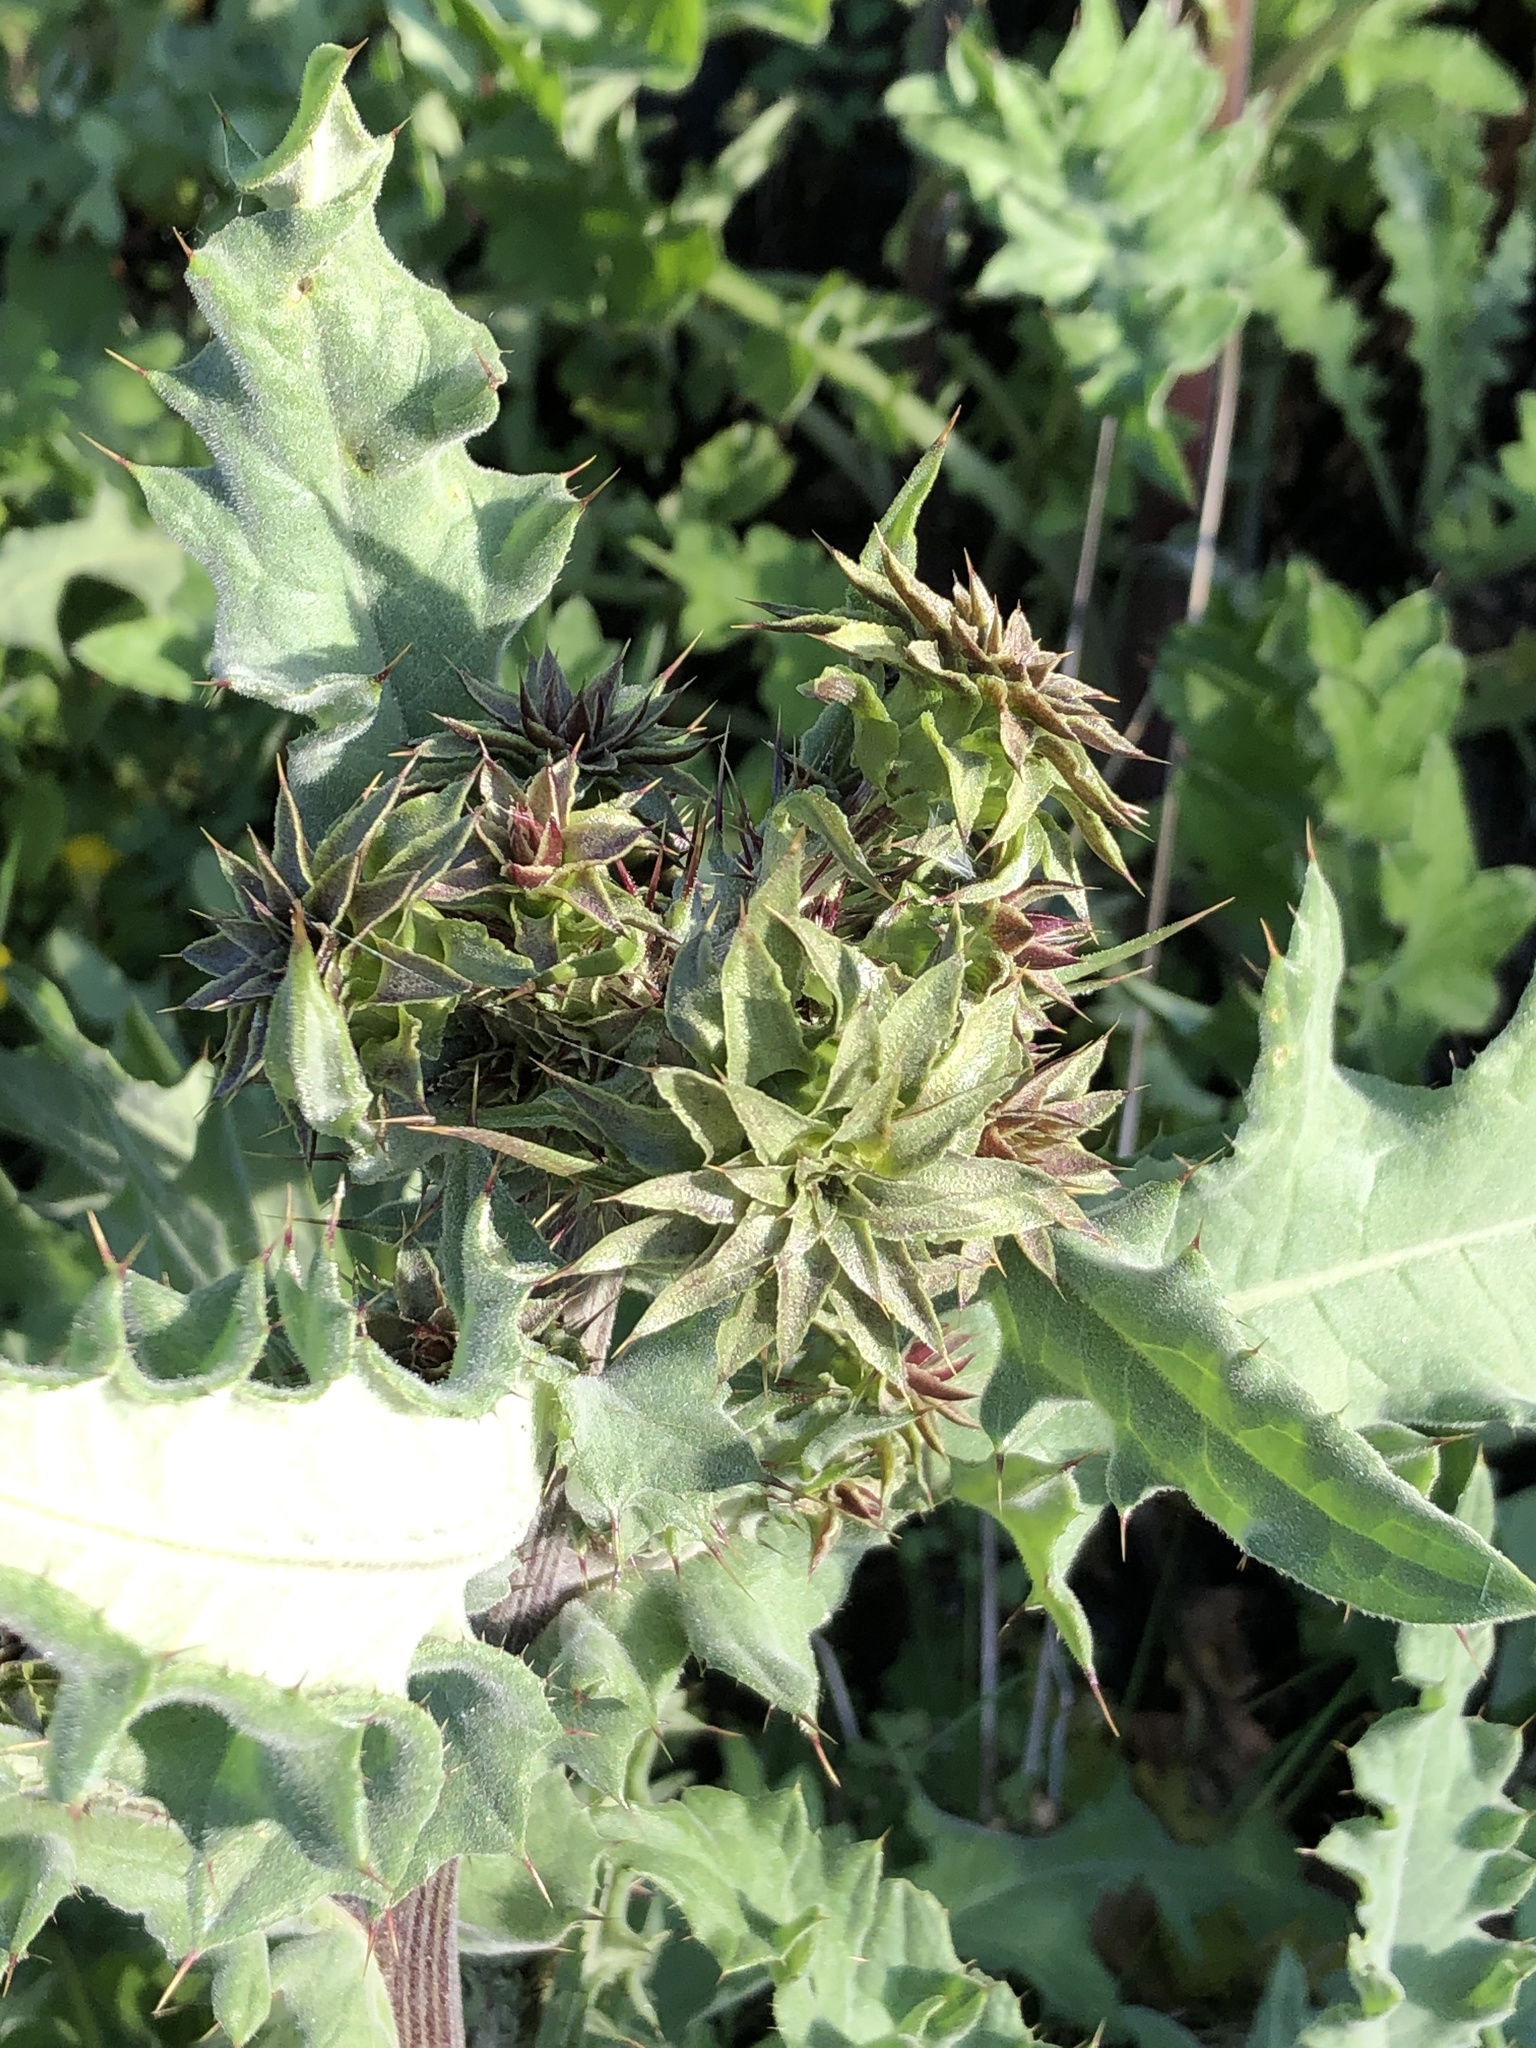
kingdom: Plantae
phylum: Tracheophyta
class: Magnoliopsida
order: Asterales
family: Asteraceae
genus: Cirsium
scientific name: Cirsium fontinale
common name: Fountain thistle
